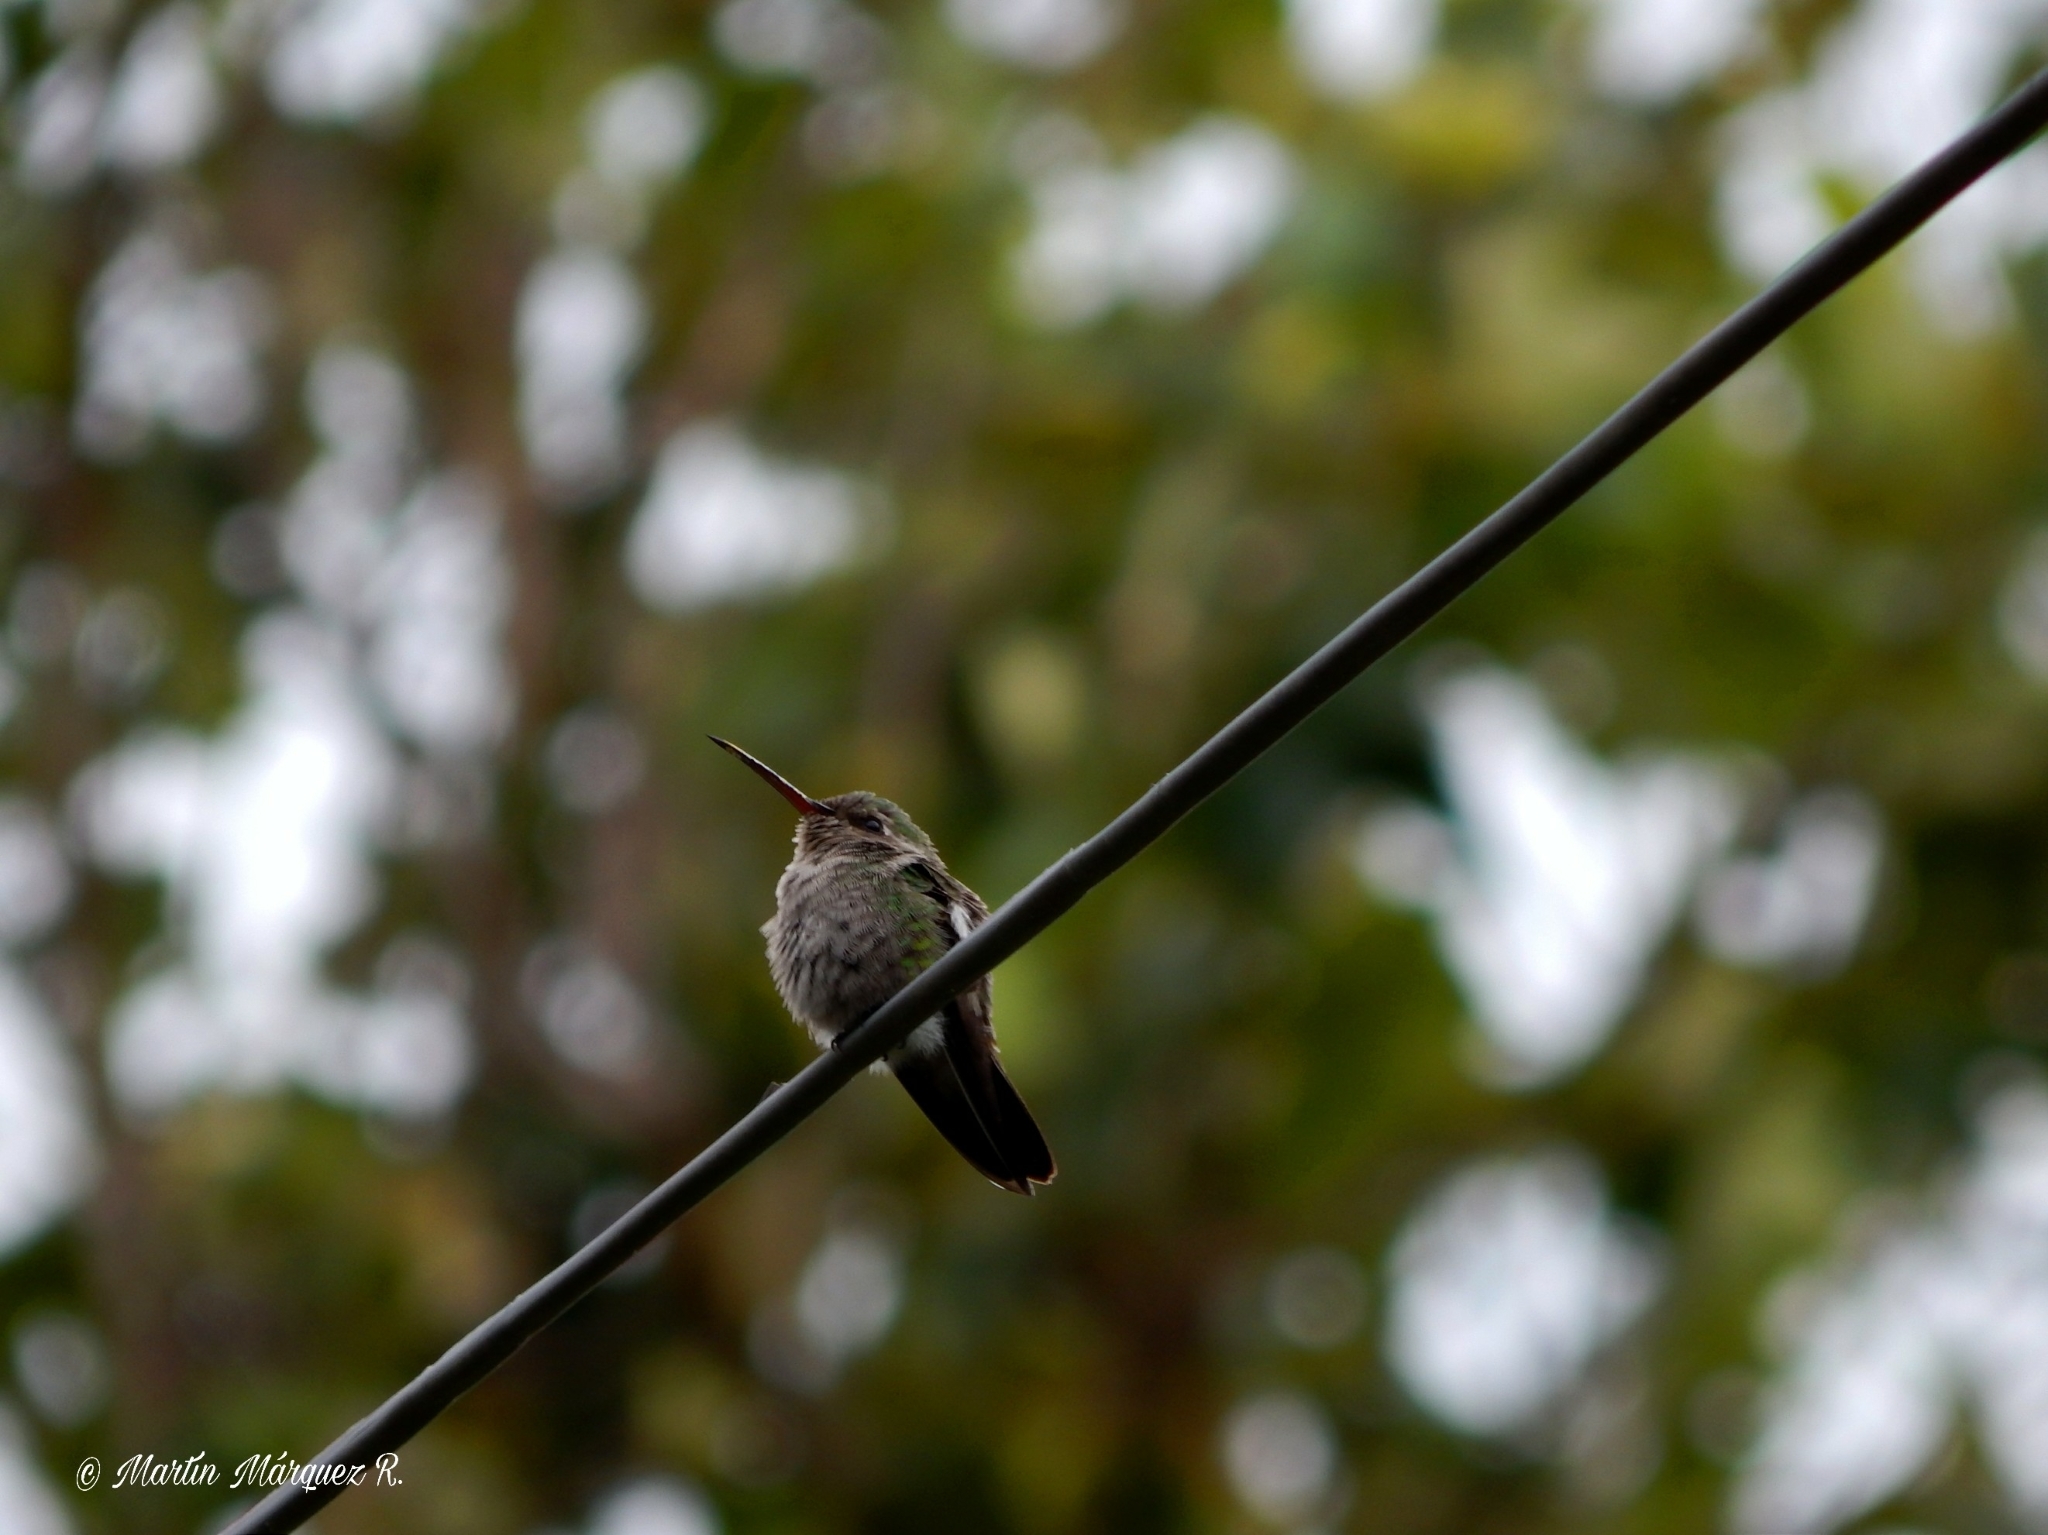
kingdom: Animalia
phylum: Chordata
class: Aves
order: Apodiformes
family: Trochilidae
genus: Cynanthus
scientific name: Cynanthus latirostris
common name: Broad-billed hummingbird
